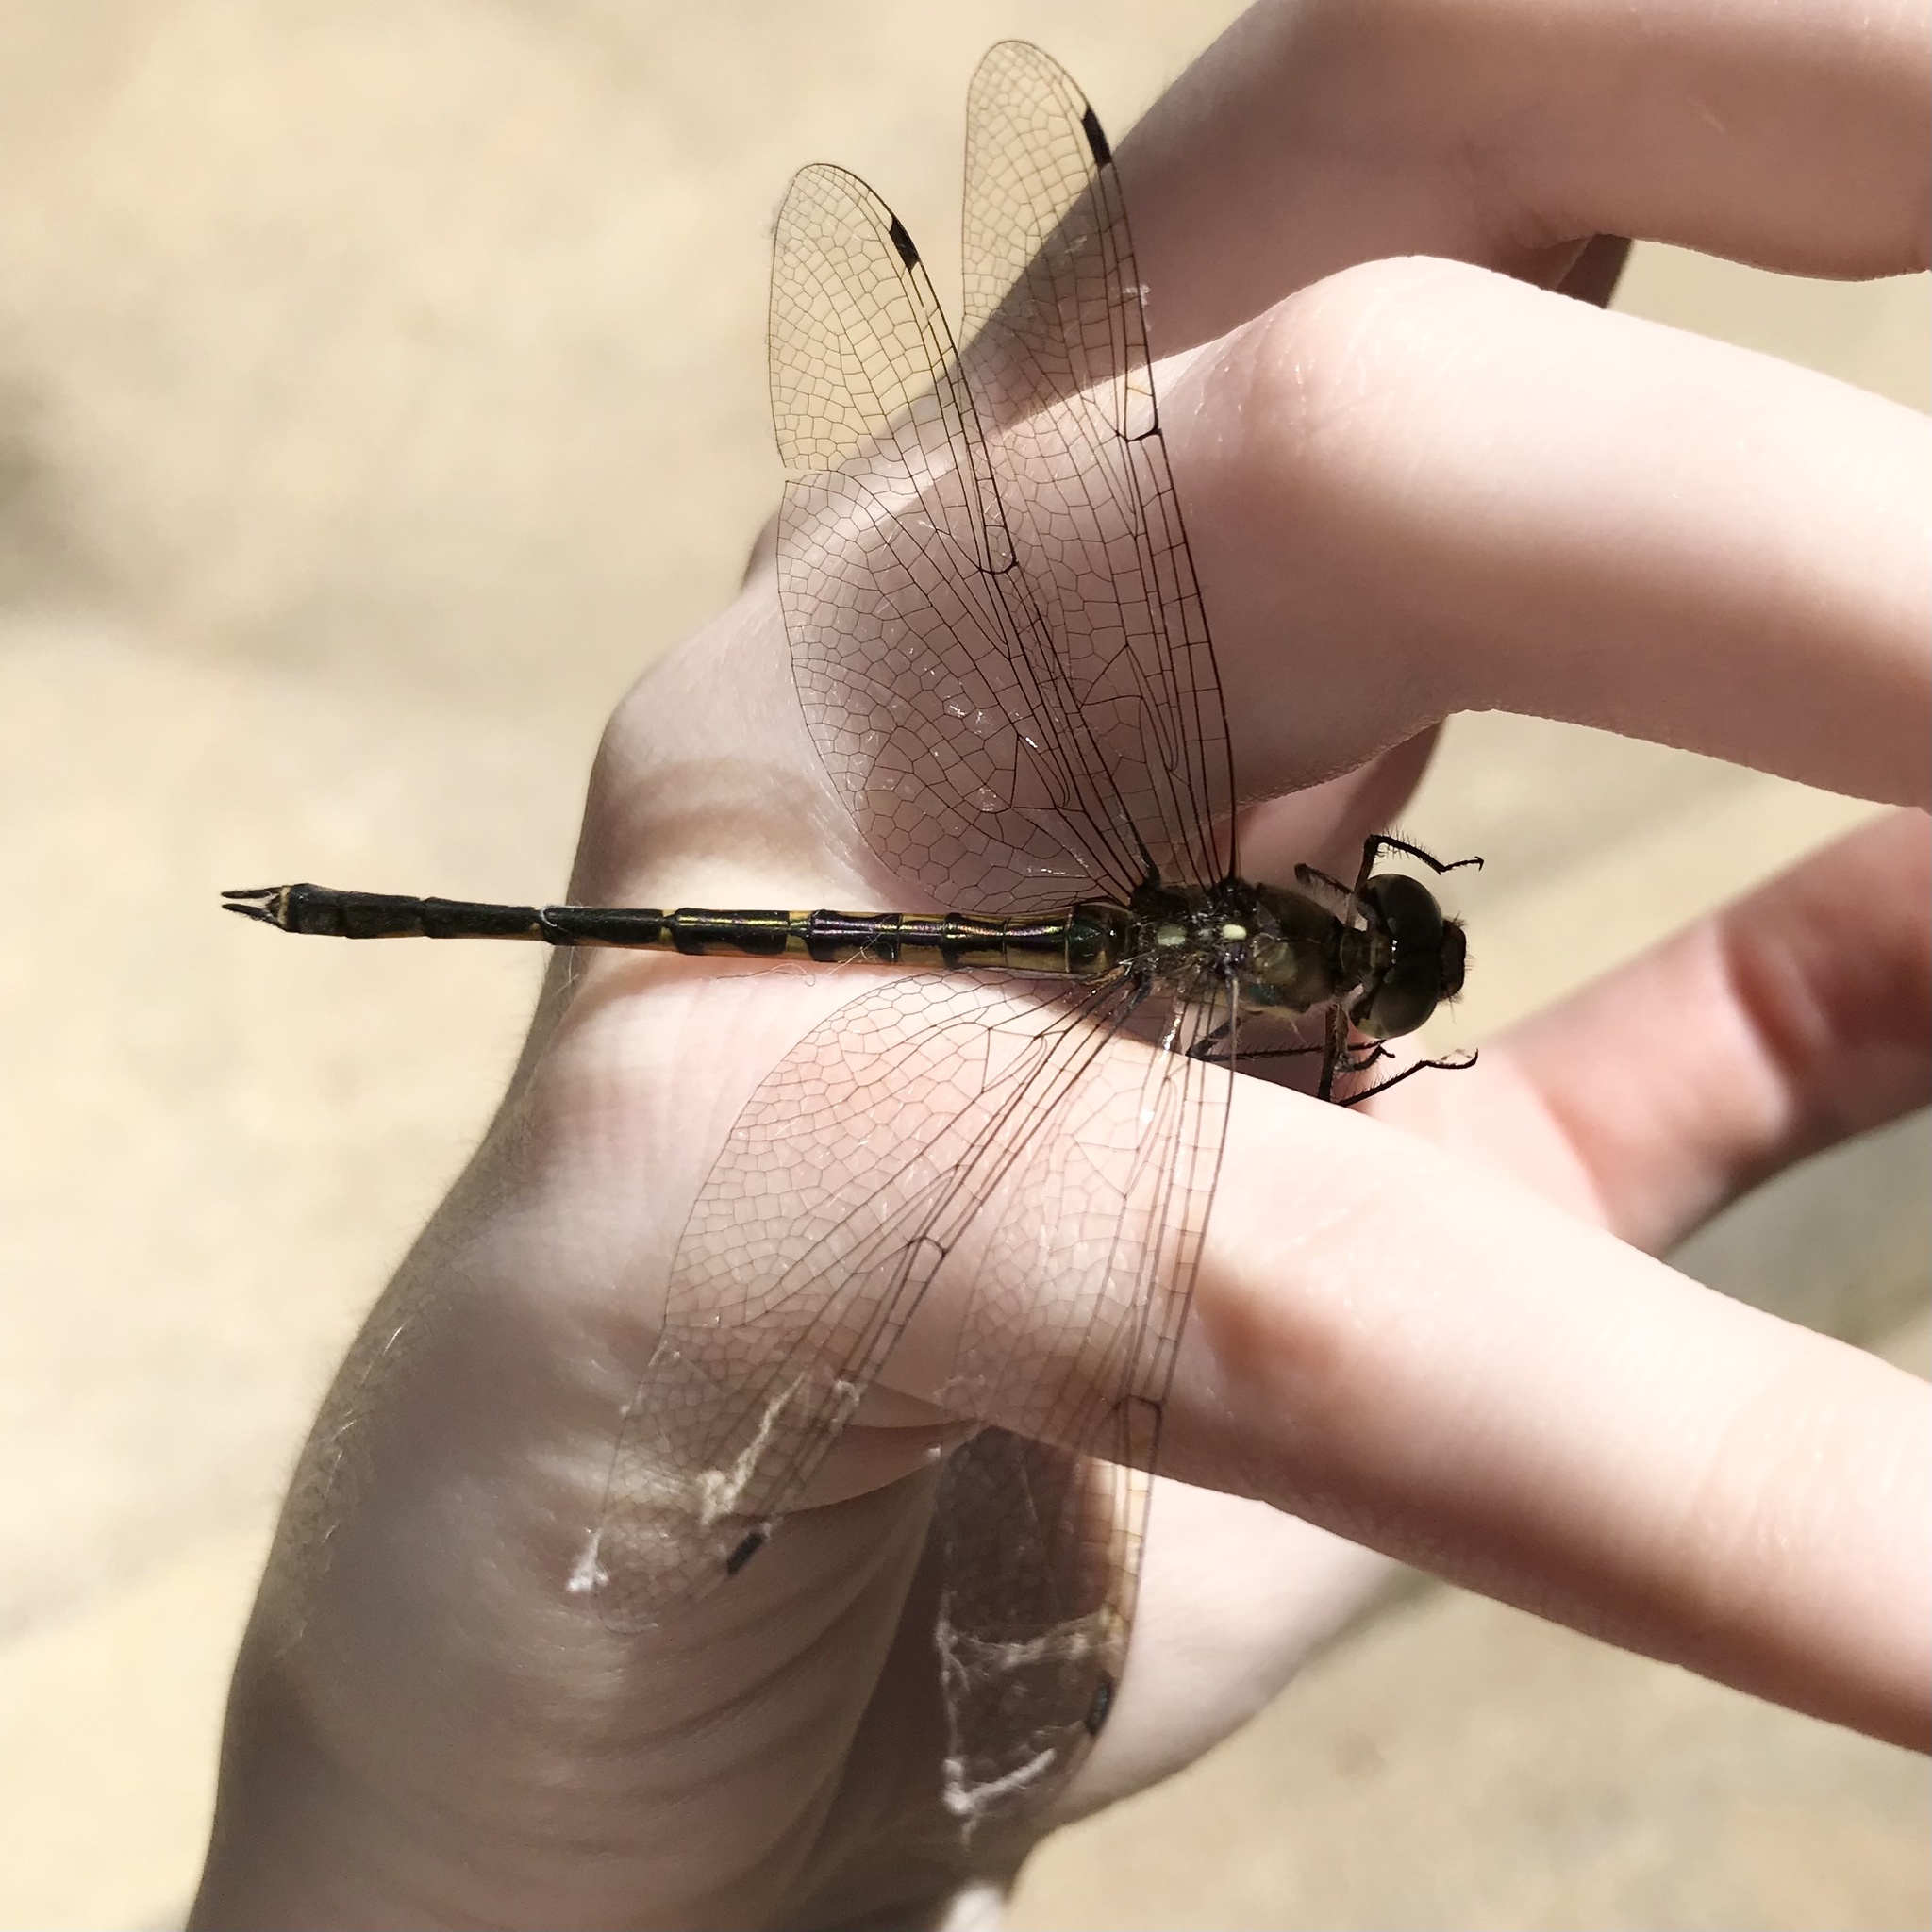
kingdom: Animalia
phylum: Arthropoda
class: Insecta
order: Odonata
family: Corduliidae
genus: Hemicordulia
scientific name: Hemicordulia australiae
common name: Sentry dragonfly
